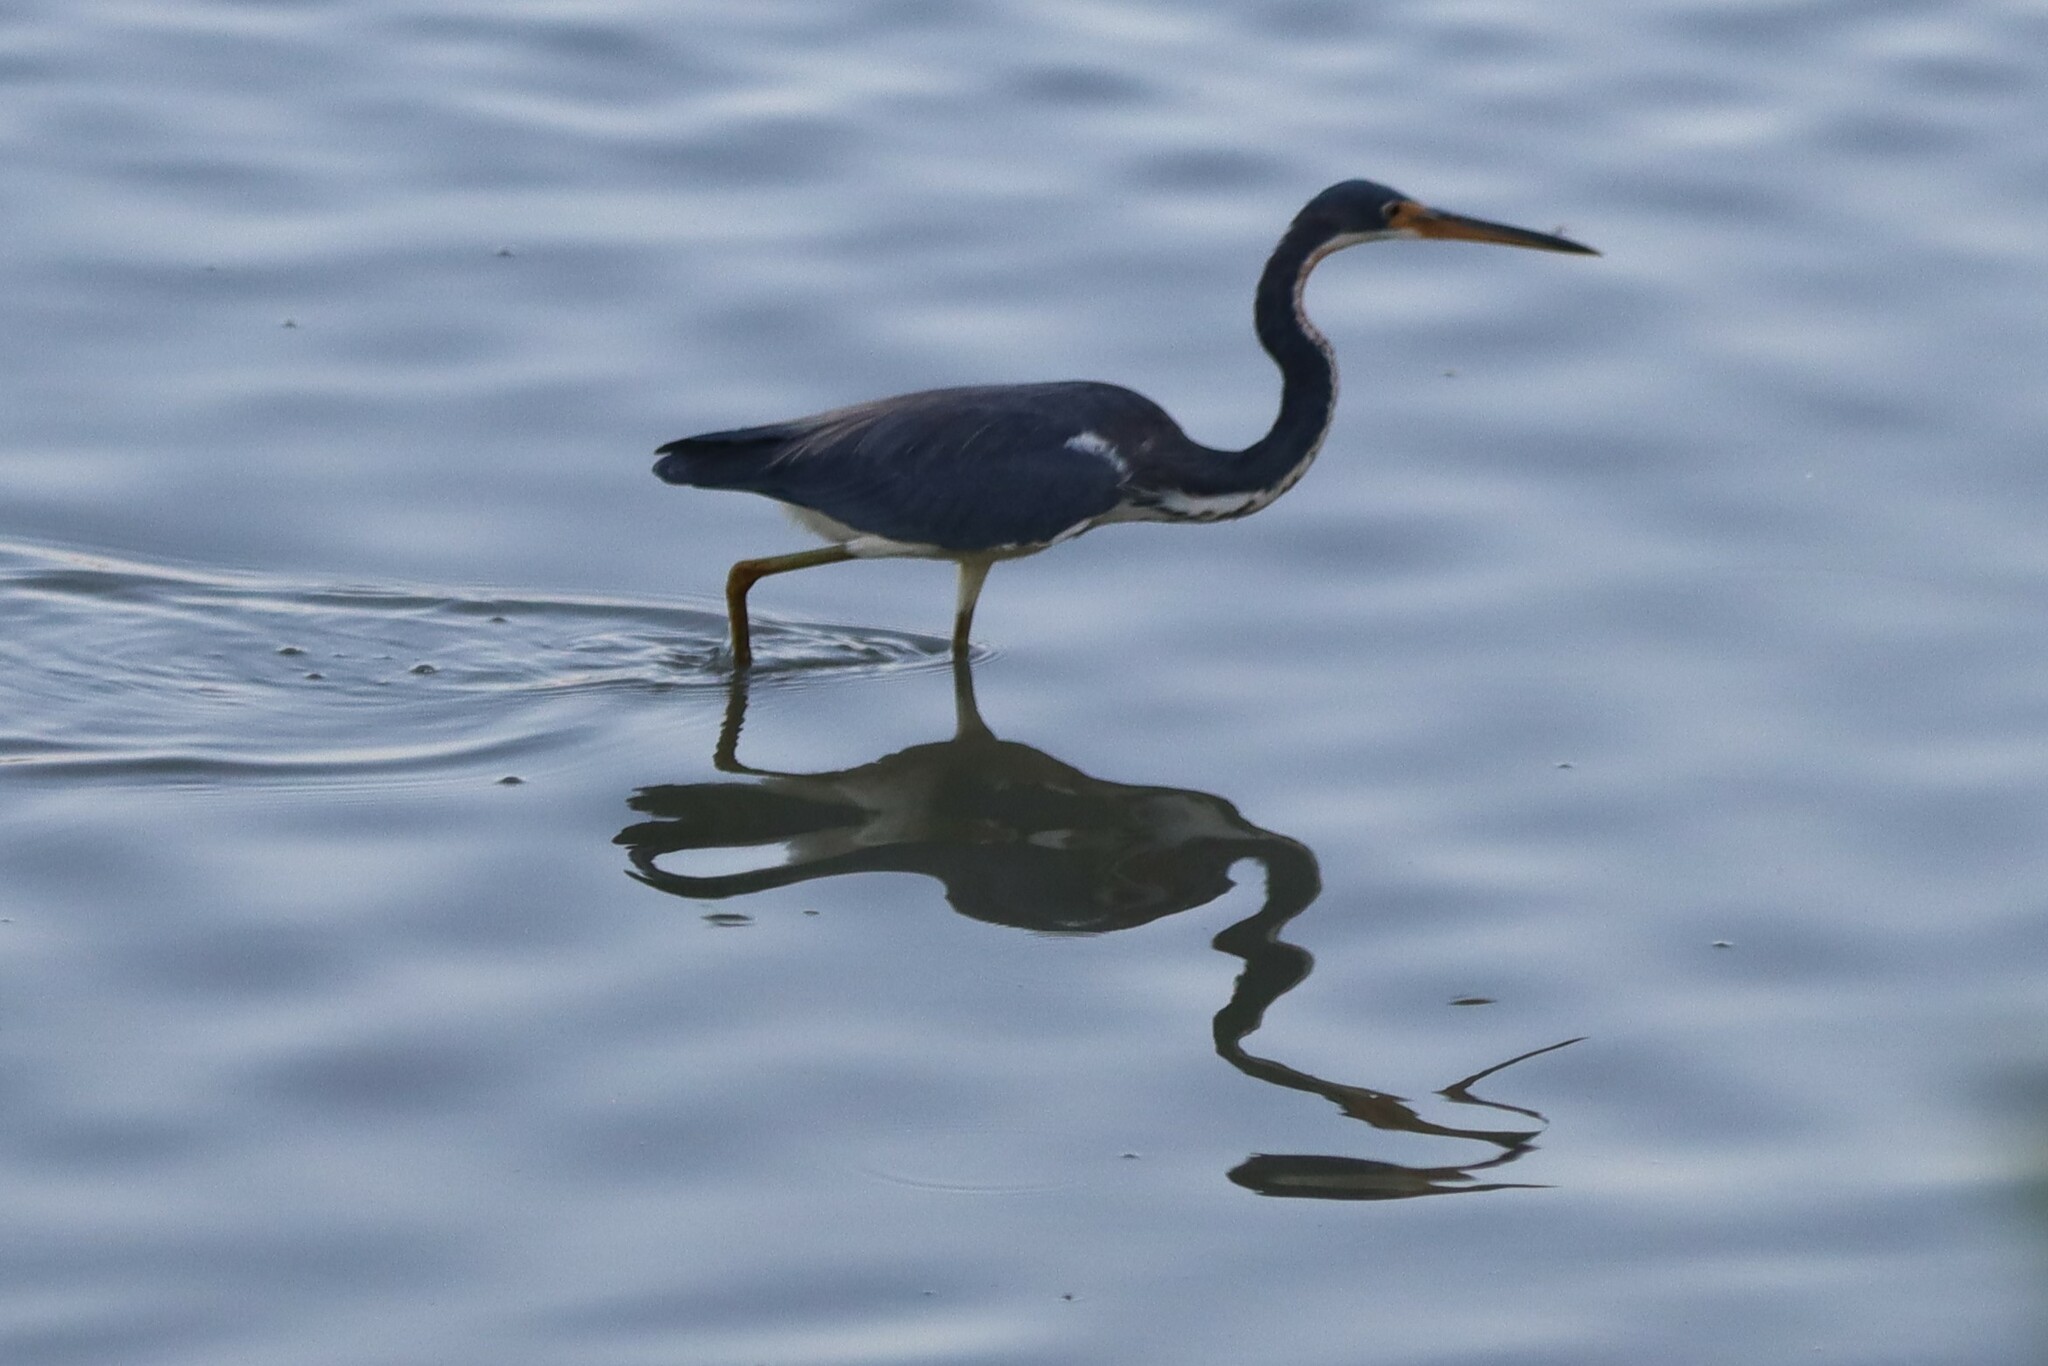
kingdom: Animalia
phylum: Chordata
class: Aves
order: Pelecaniformes
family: Ardeidae
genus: Egretta
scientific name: Egretta tricolor
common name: Tricolored heron
